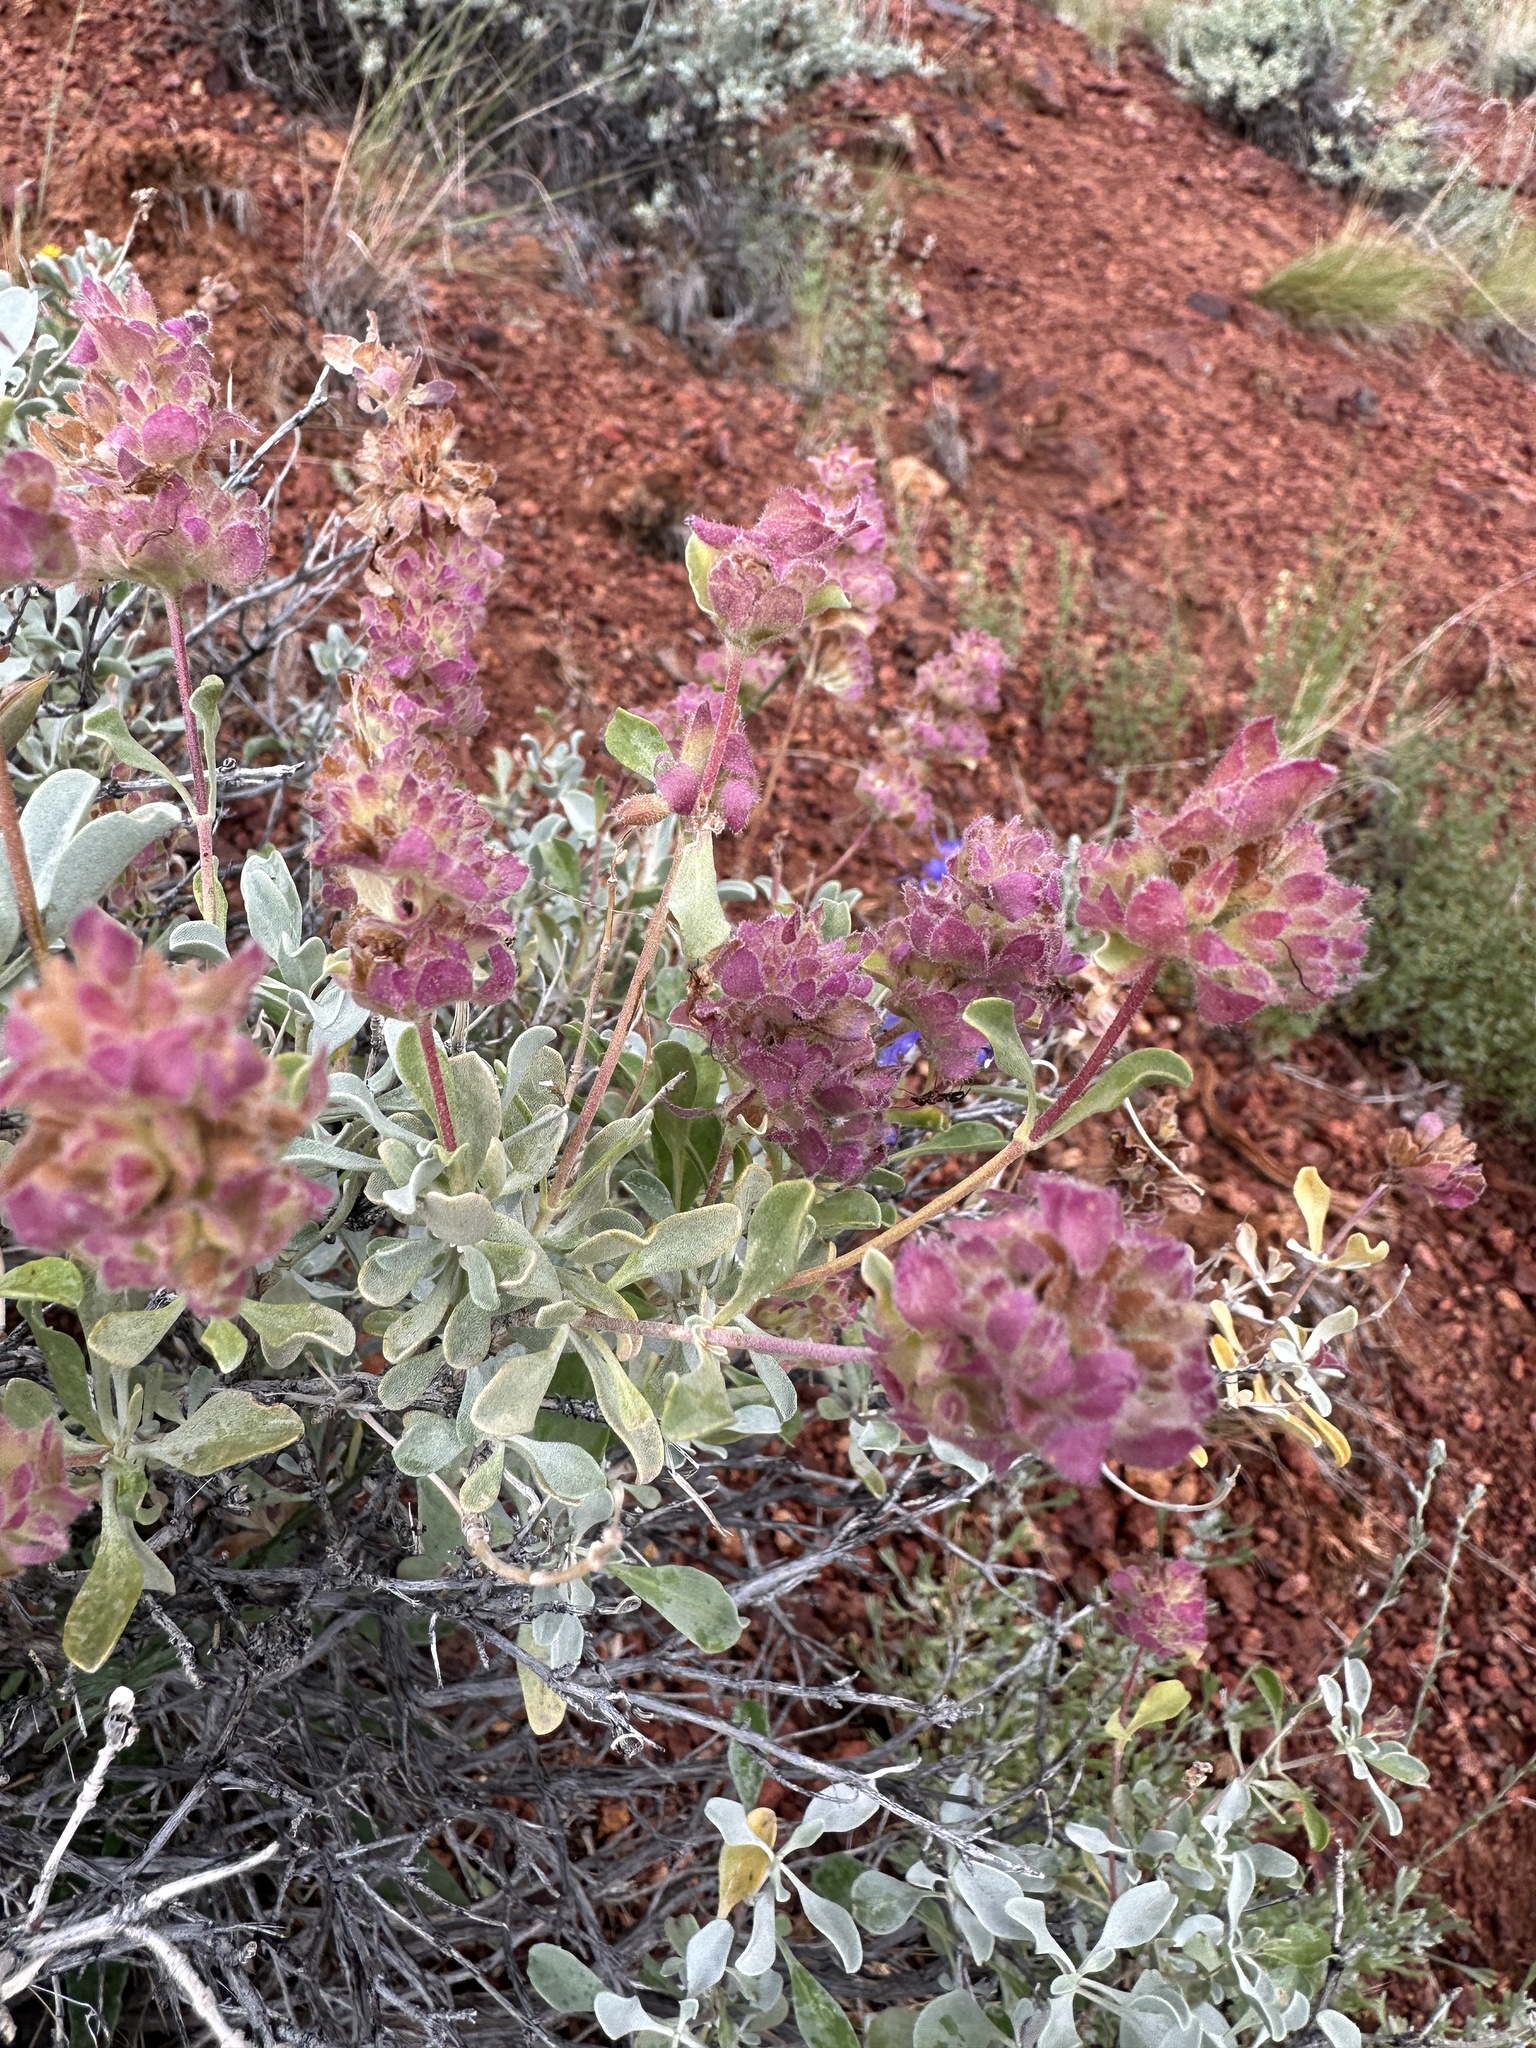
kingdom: Plantae
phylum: Tracheophyta
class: Magnoliopsida
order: Lamiales
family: Lamiaceae
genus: Salvia
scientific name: Salvia dorrii
